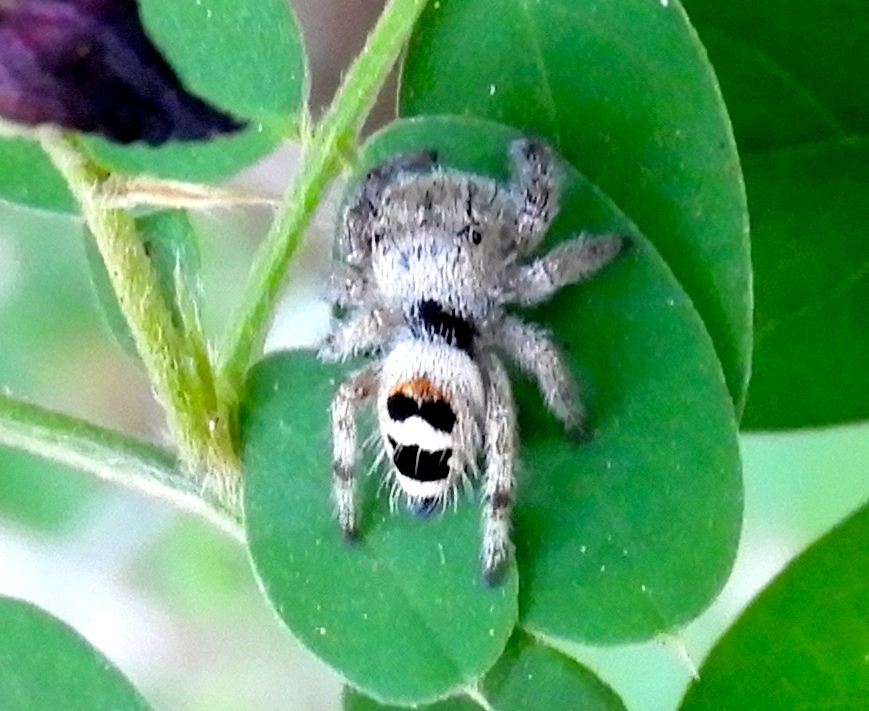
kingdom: Animalia
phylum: Arthropoda
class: Arachnida
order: Araneae
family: Salticidae
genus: Phidippus
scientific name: Phidippus pacosauritus
